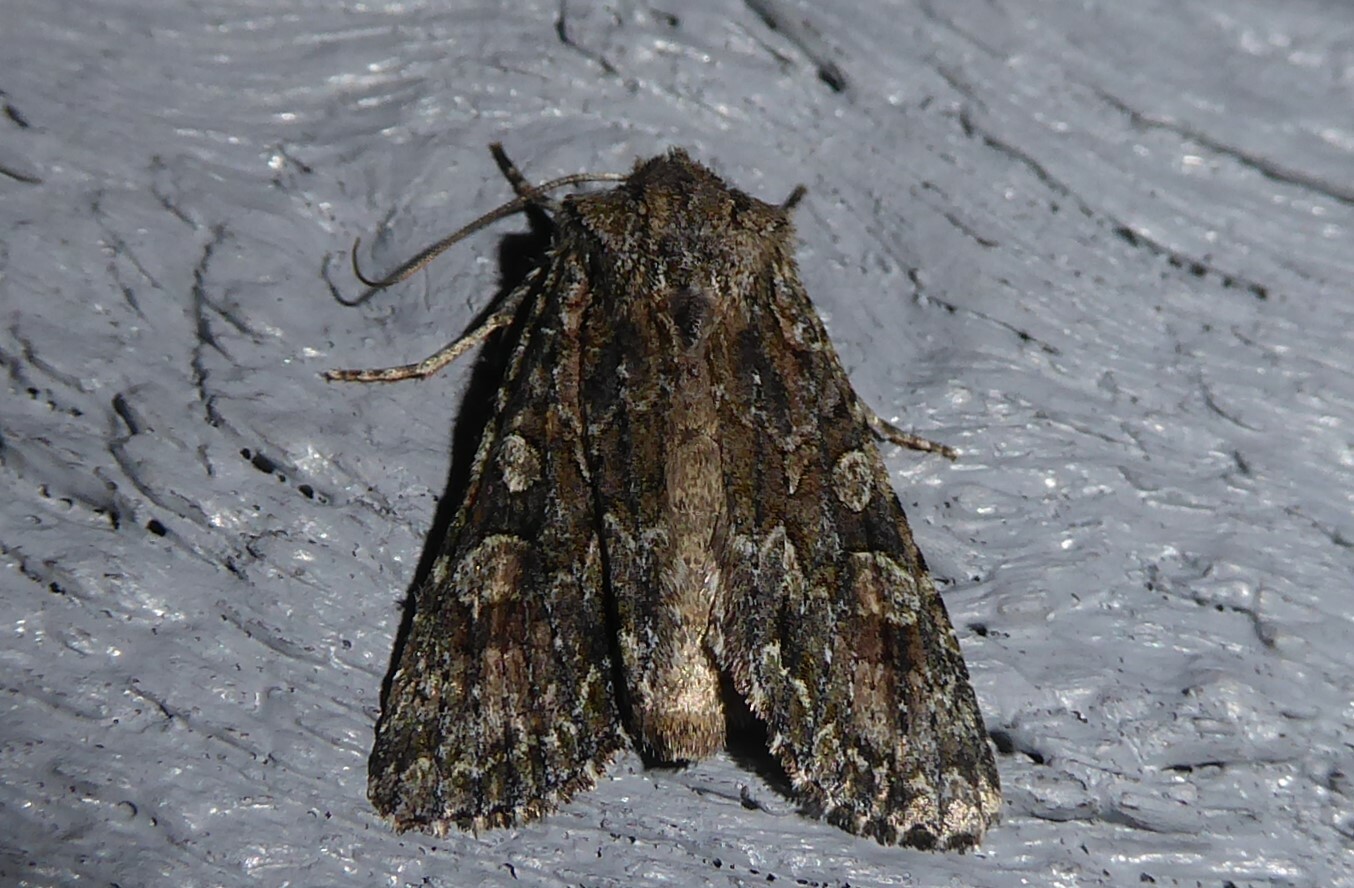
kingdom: Animalia
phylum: Arthropoda
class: Insecta
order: Lepidoptera
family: Noctuidae
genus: Ichneutica
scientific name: Ichneutica mutans
